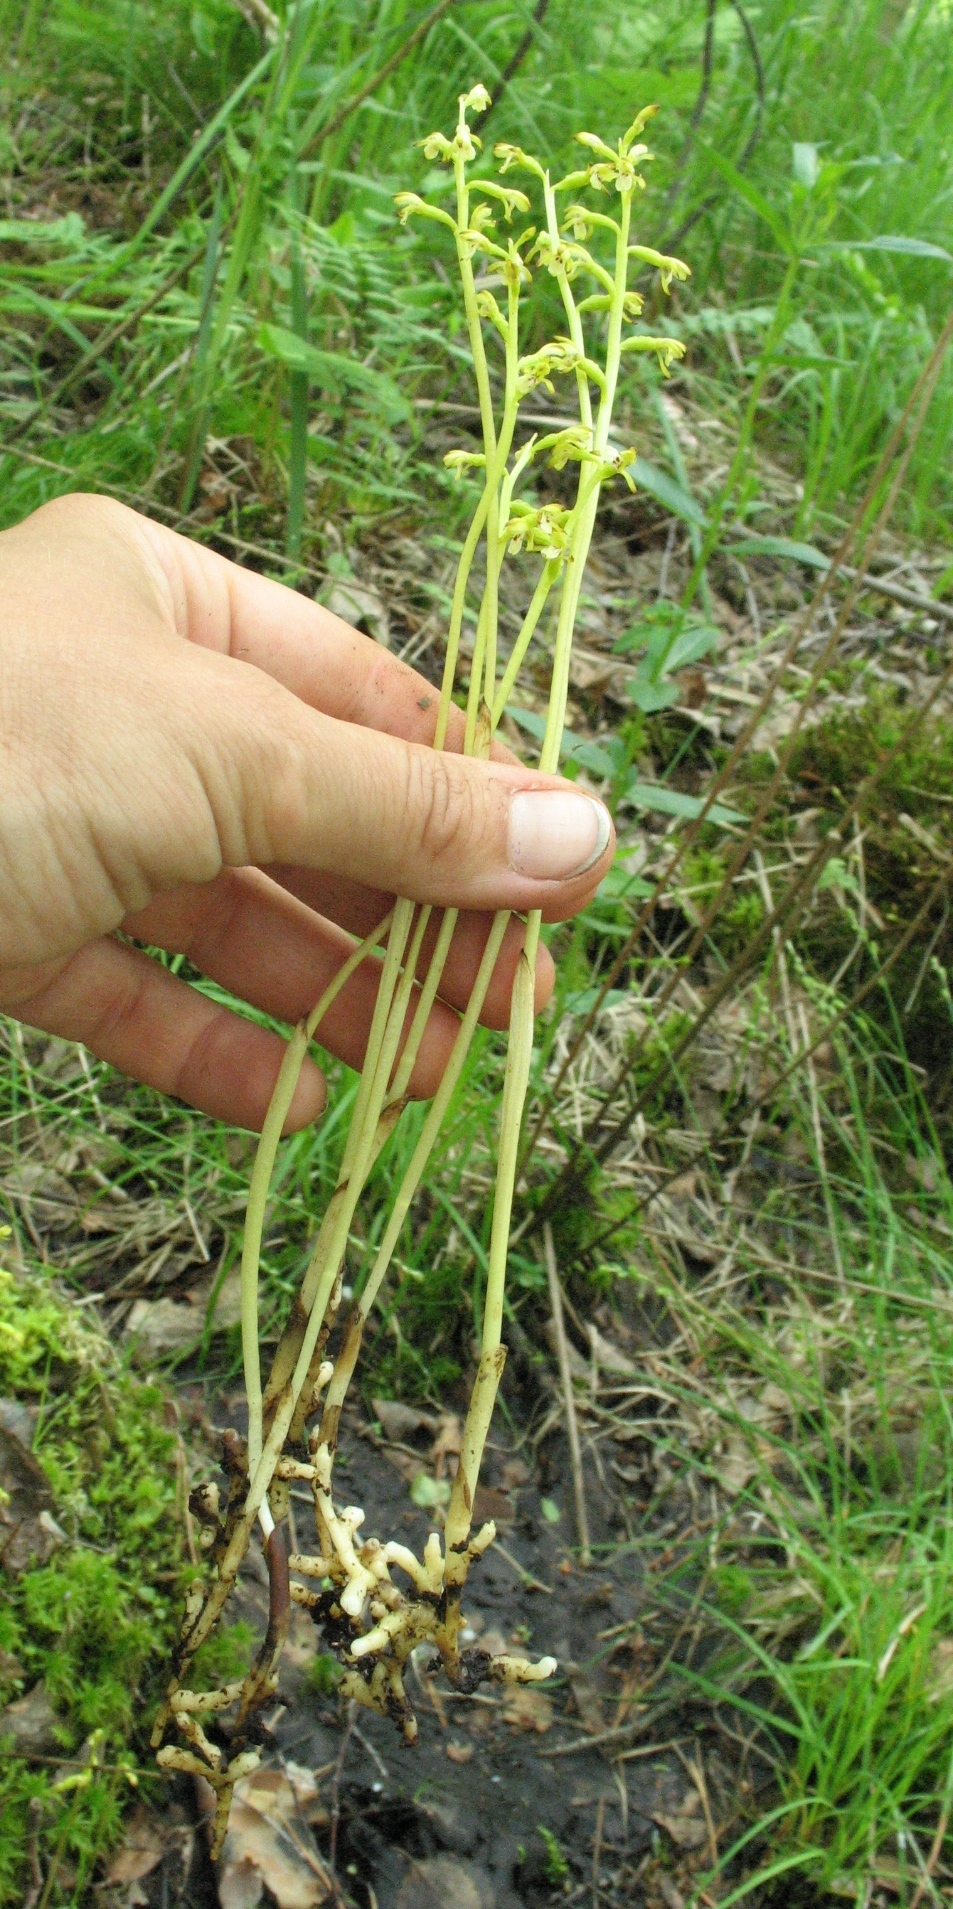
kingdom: Plantae
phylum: Tracheophyta
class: Liliopsida
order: Asparagales
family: Orchidaceae
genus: Corallorhiza
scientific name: Corallorhiza trifida
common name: Yellow coralroot
